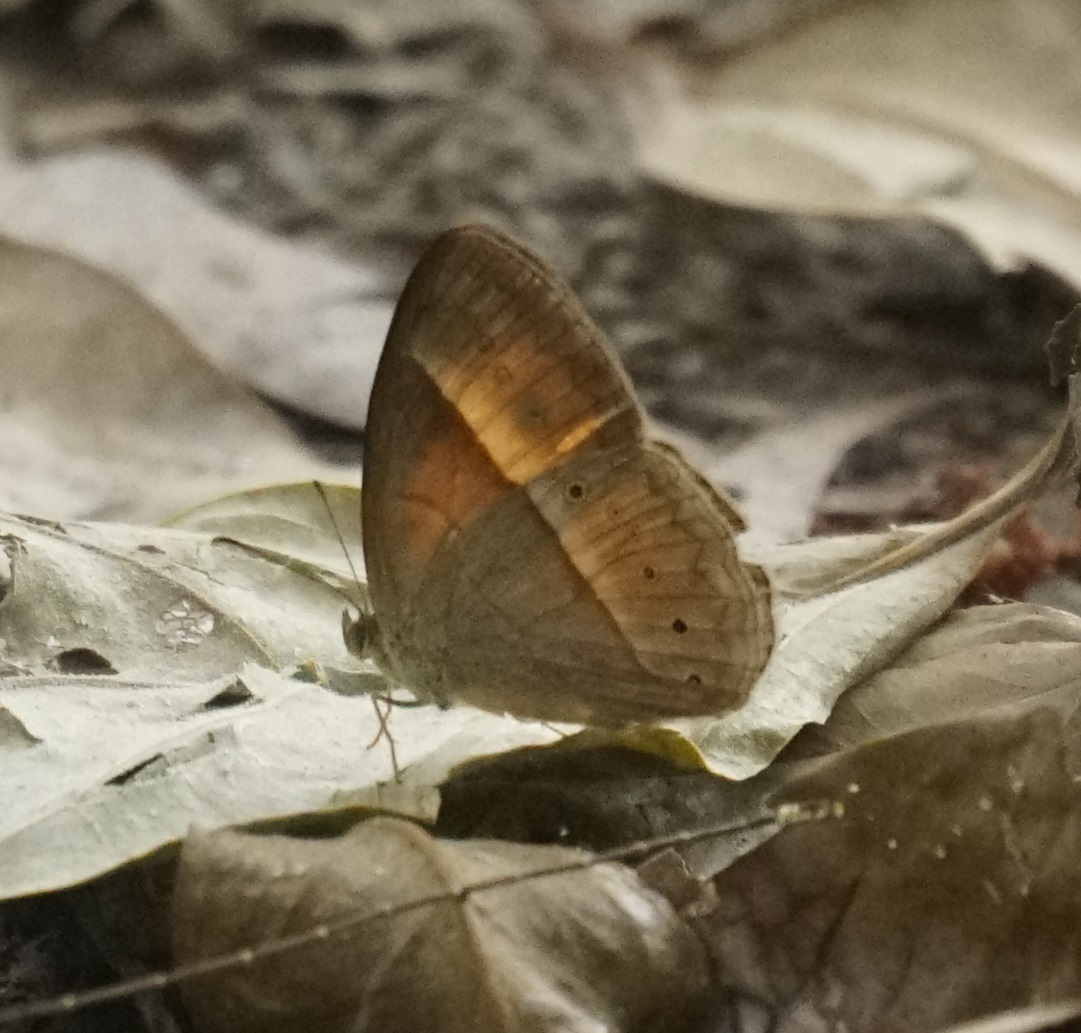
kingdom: Animalia
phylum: Arthropoda
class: Insecta
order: Lepidoptera
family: Nymphalidae
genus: Mycalesis
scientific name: Mycalesis terminus
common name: Orange bushbrown
